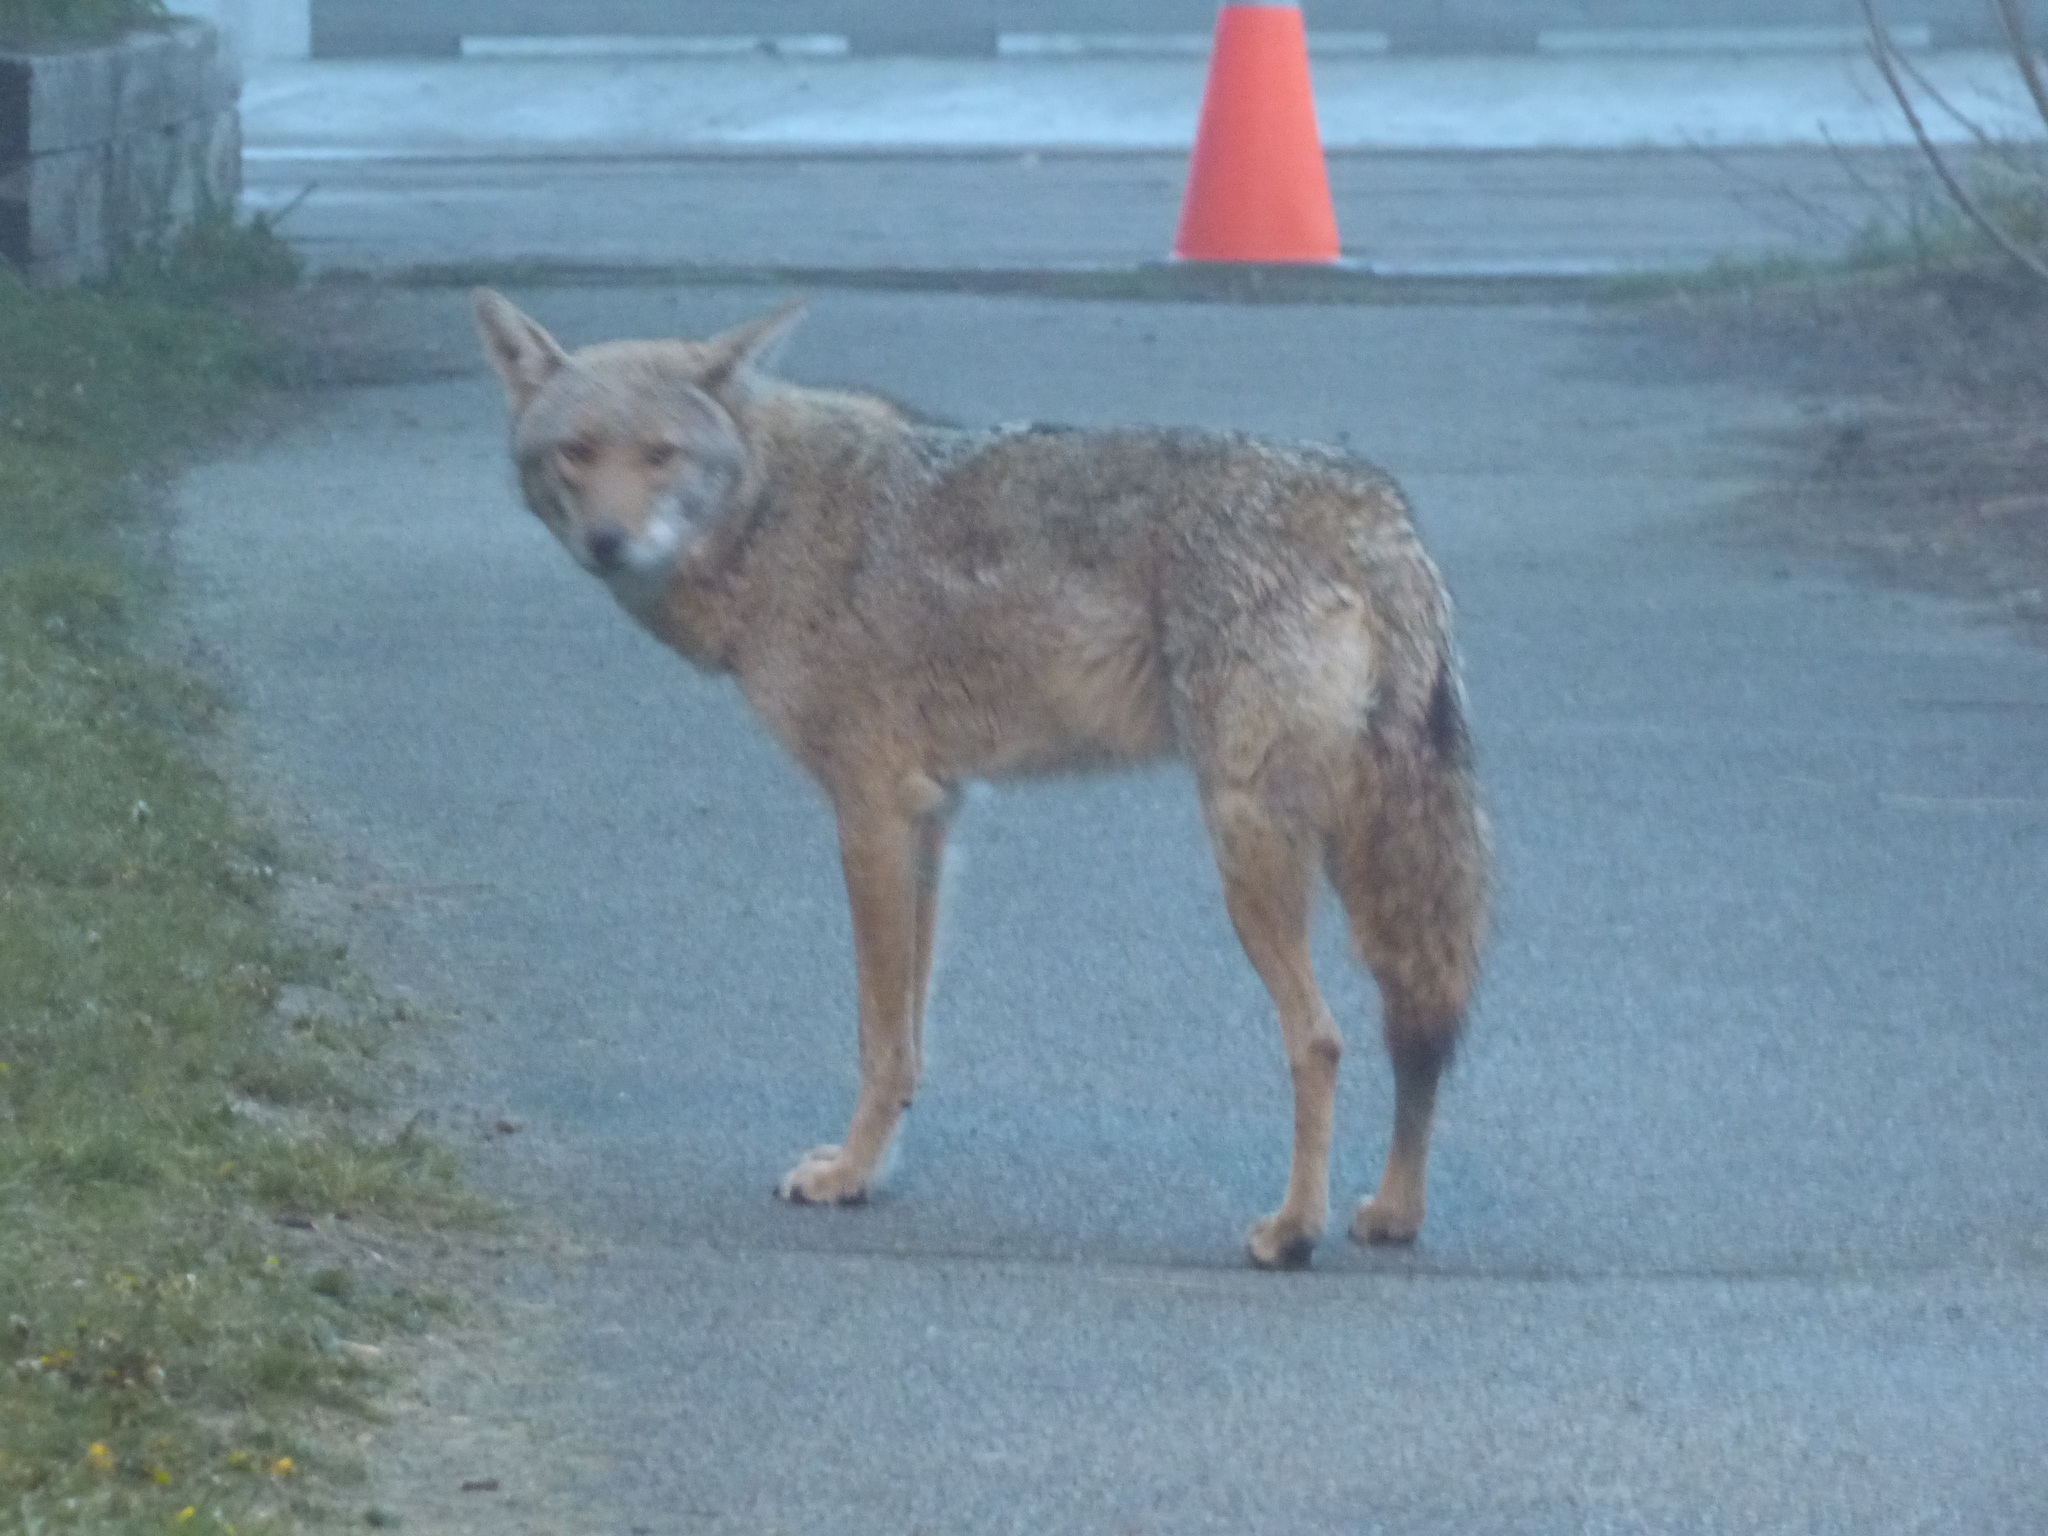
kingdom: Animalia
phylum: Chordata
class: Mammalia
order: Carnivora
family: Canidae
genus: Canis
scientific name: Canis latrans
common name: Coyote
